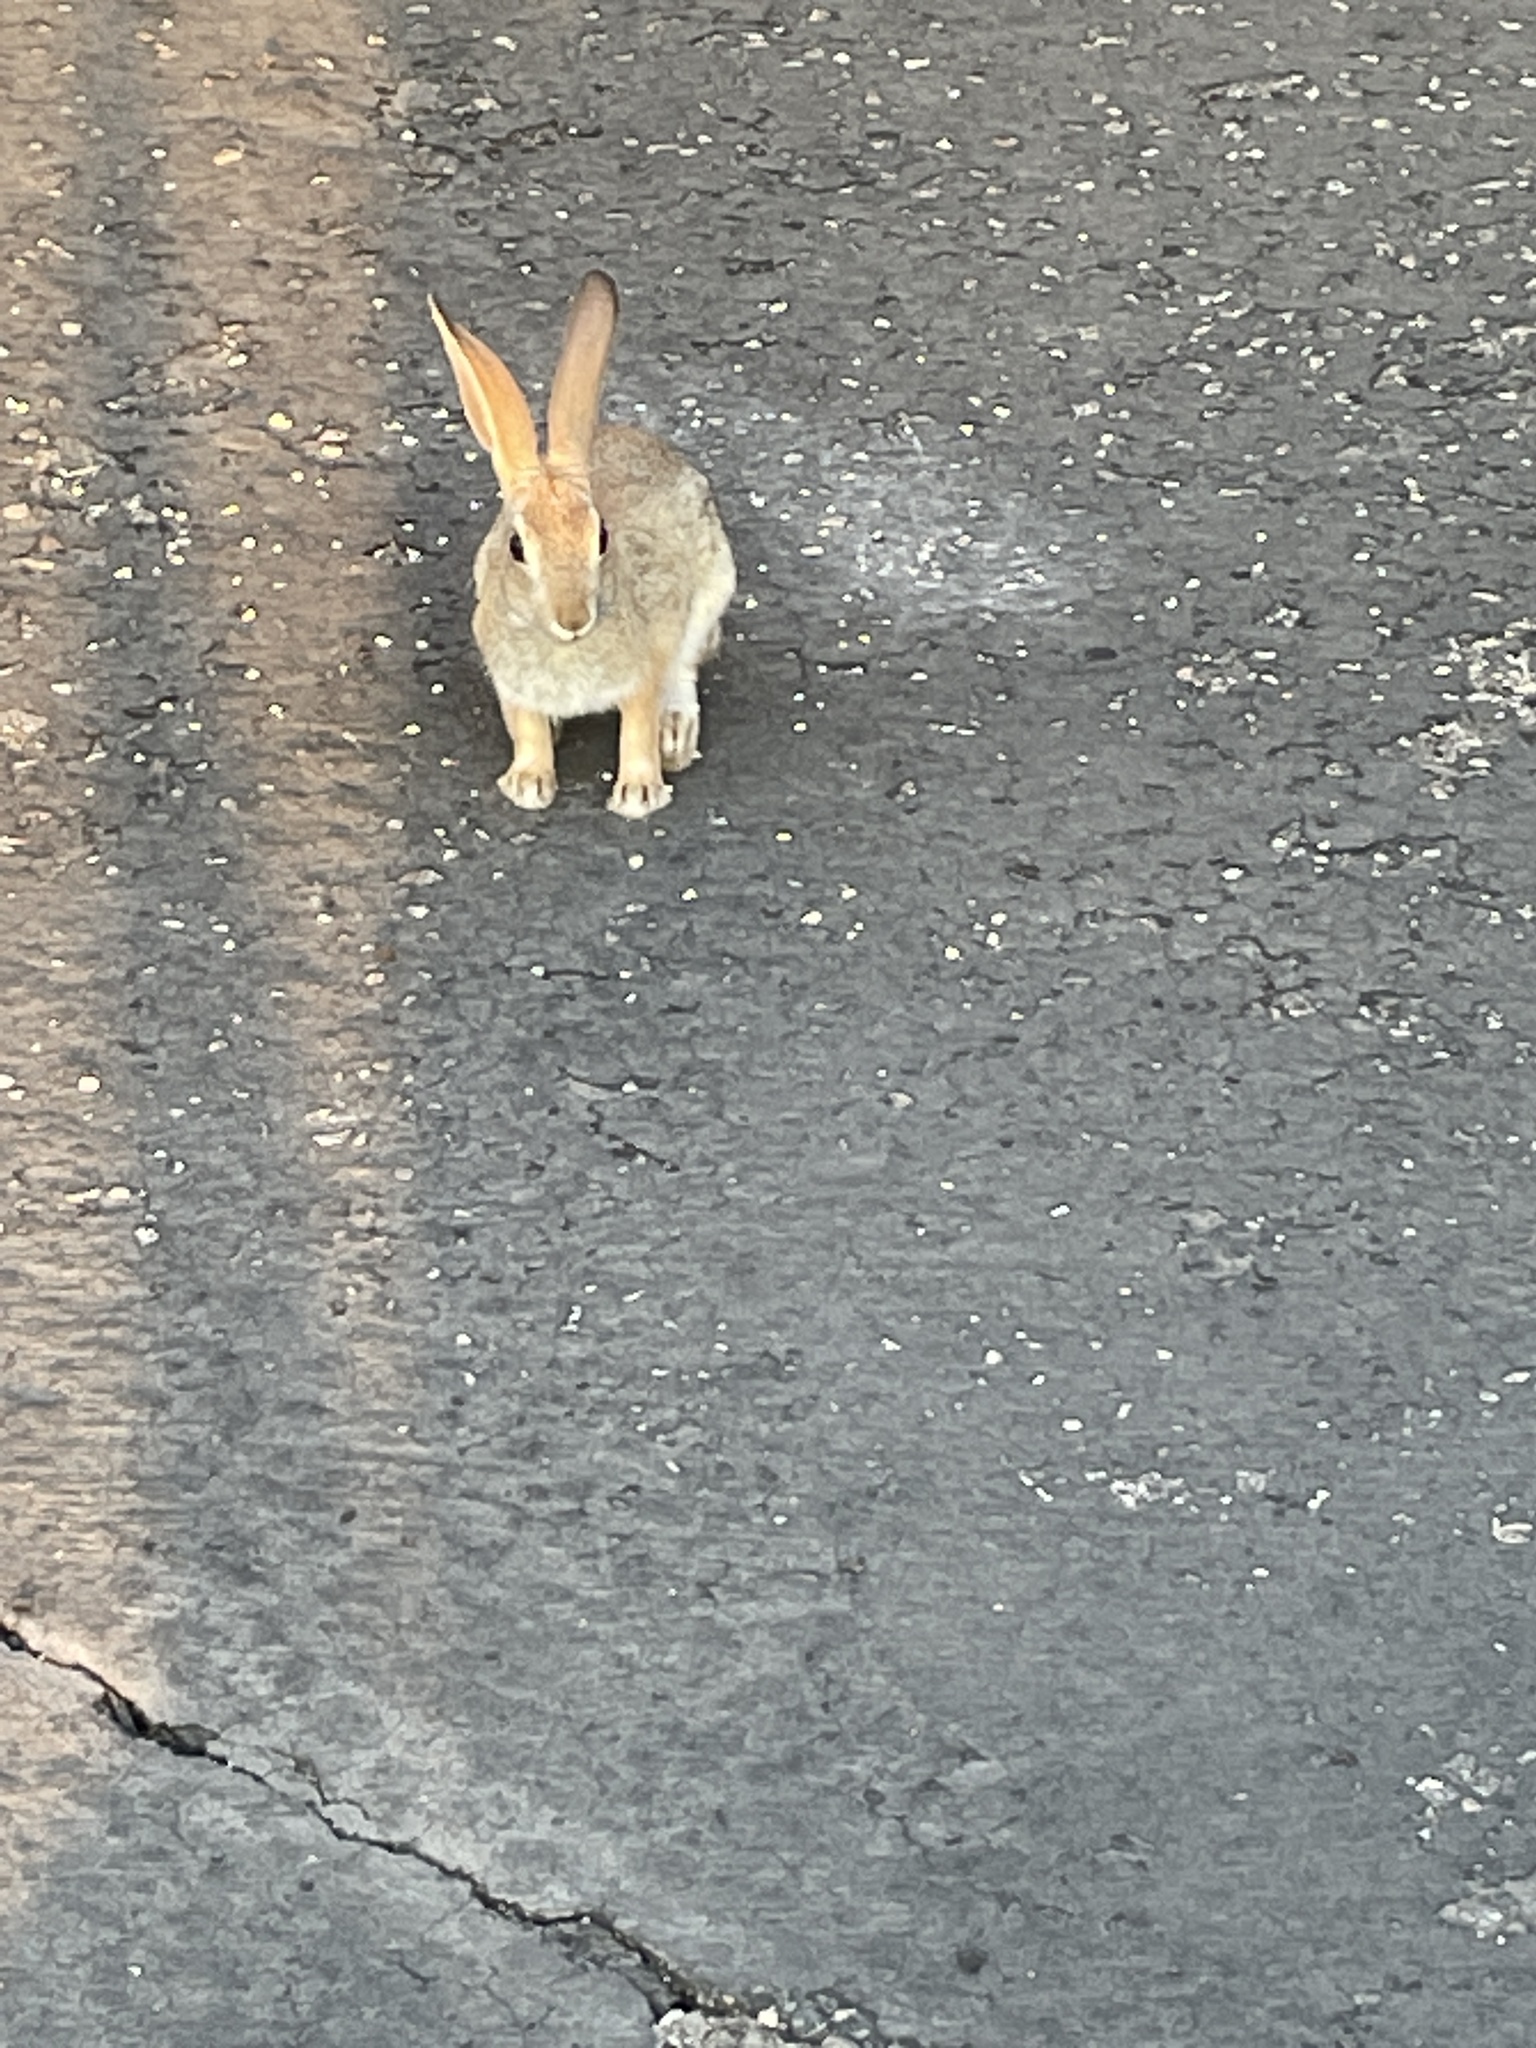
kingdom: Animalia
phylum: Chordata
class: Mammalia
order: Lagomorpha
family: Leporidae
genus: Sylvilagus
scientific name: Sylvilagus audubonii
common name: Desert cottontail
